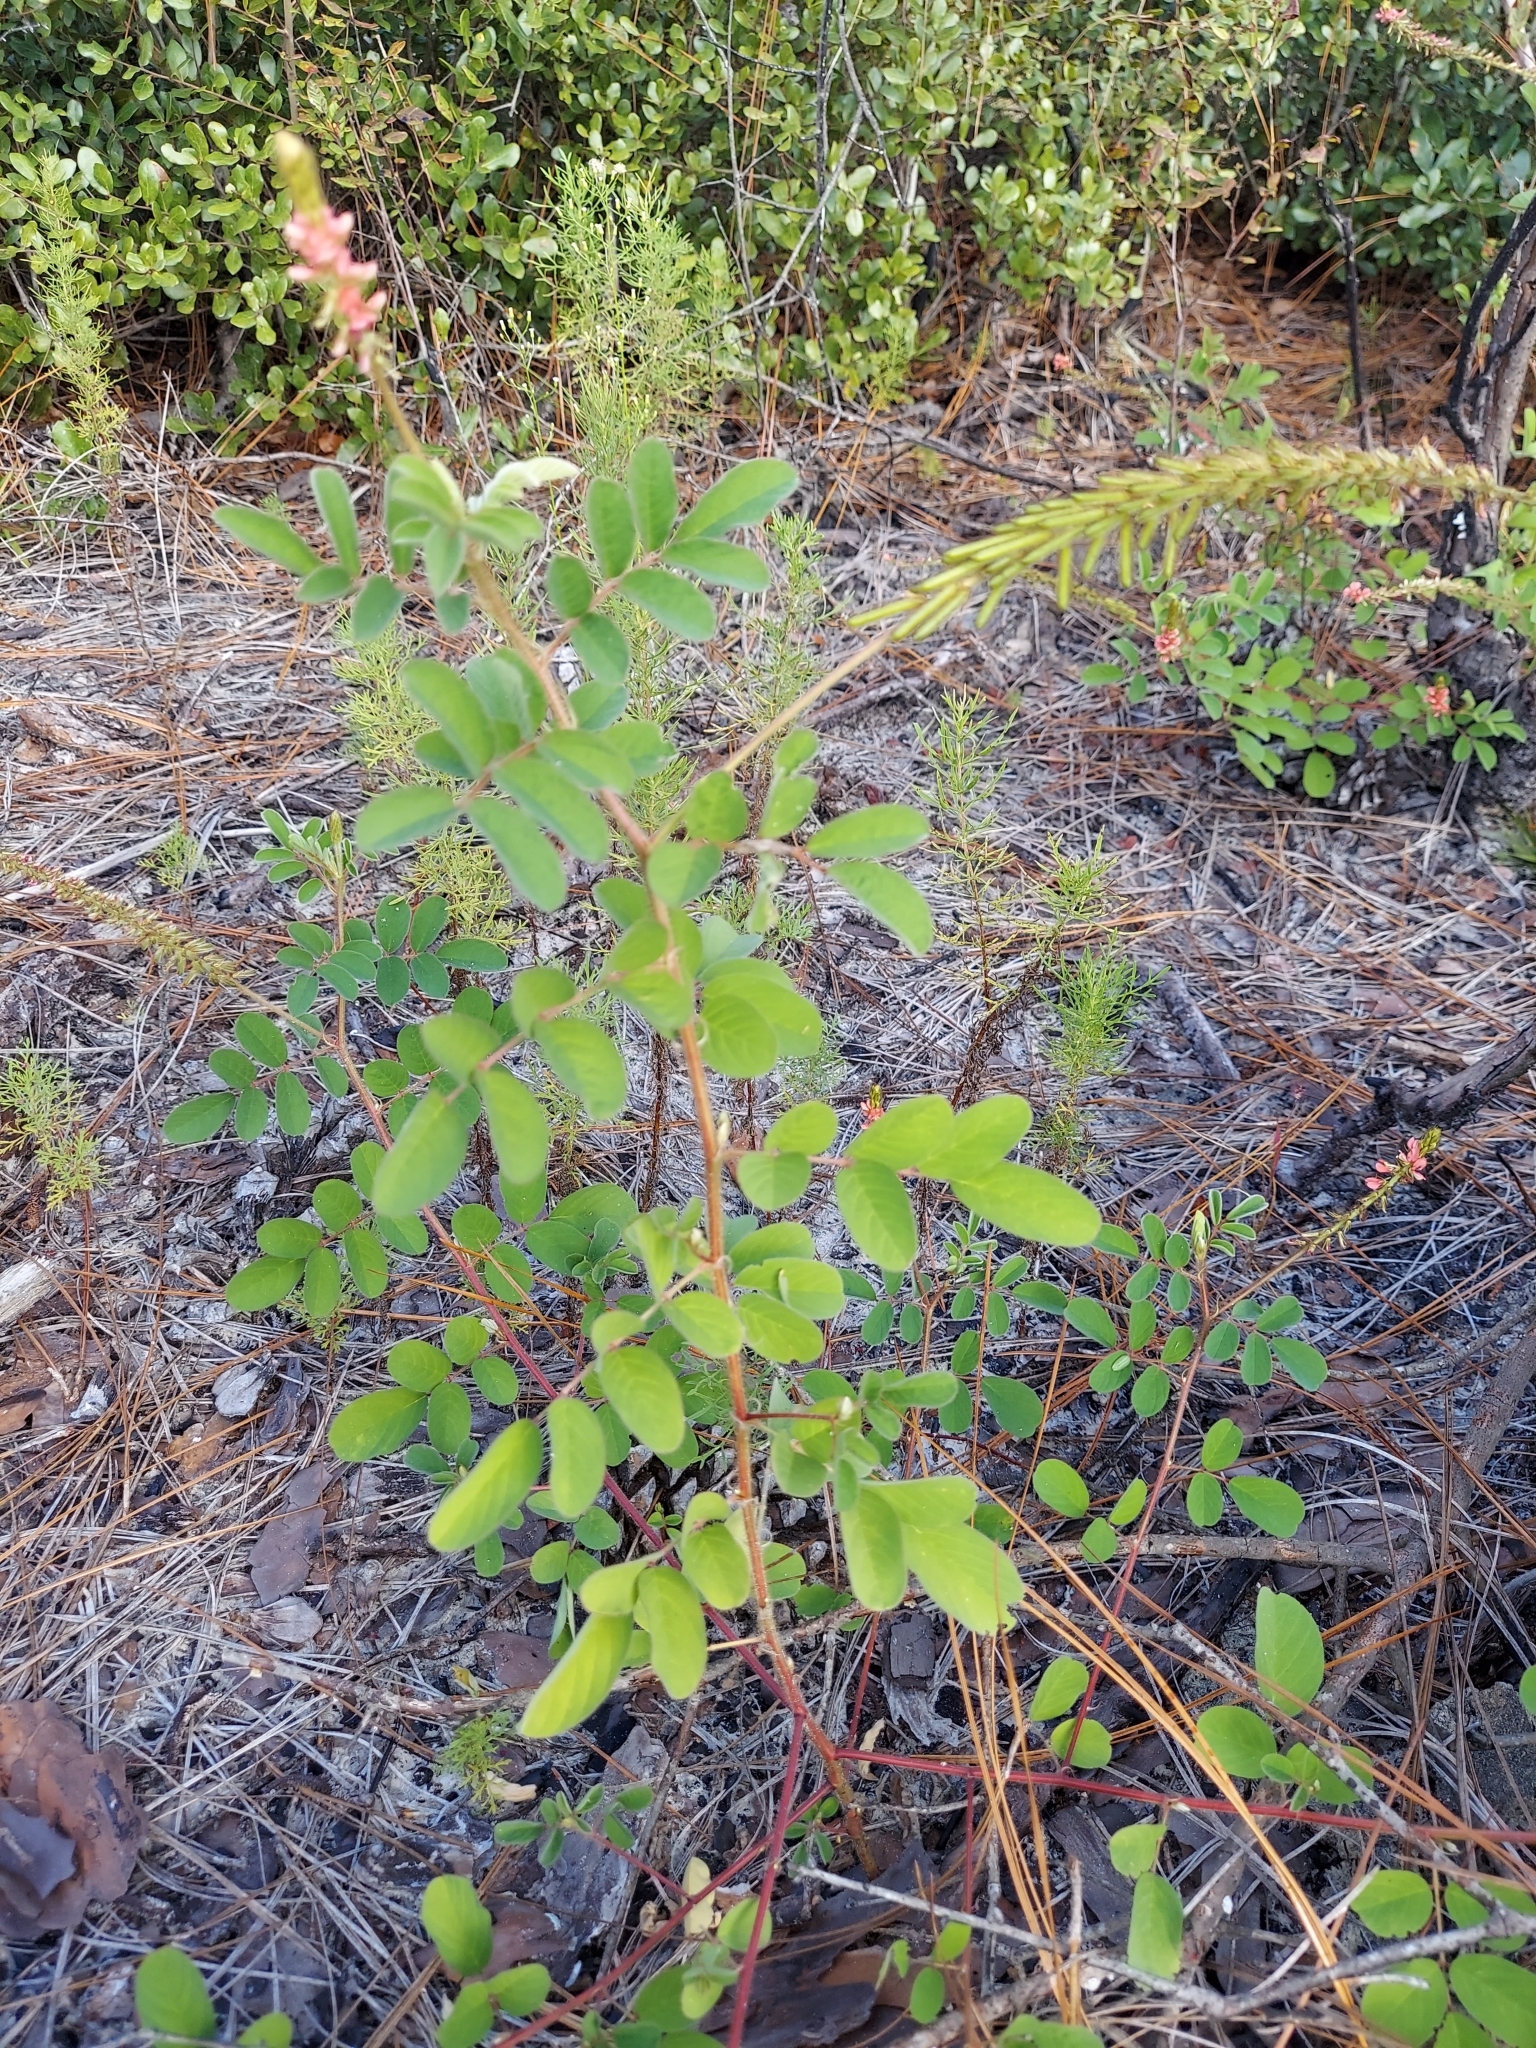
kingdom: Plantae
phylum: Tracheophyta
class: Magnoliopsida
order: Fabales
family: Fabaceae
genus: Indigofera
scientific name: Indigofera hirsuta
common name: Hairy indigo
